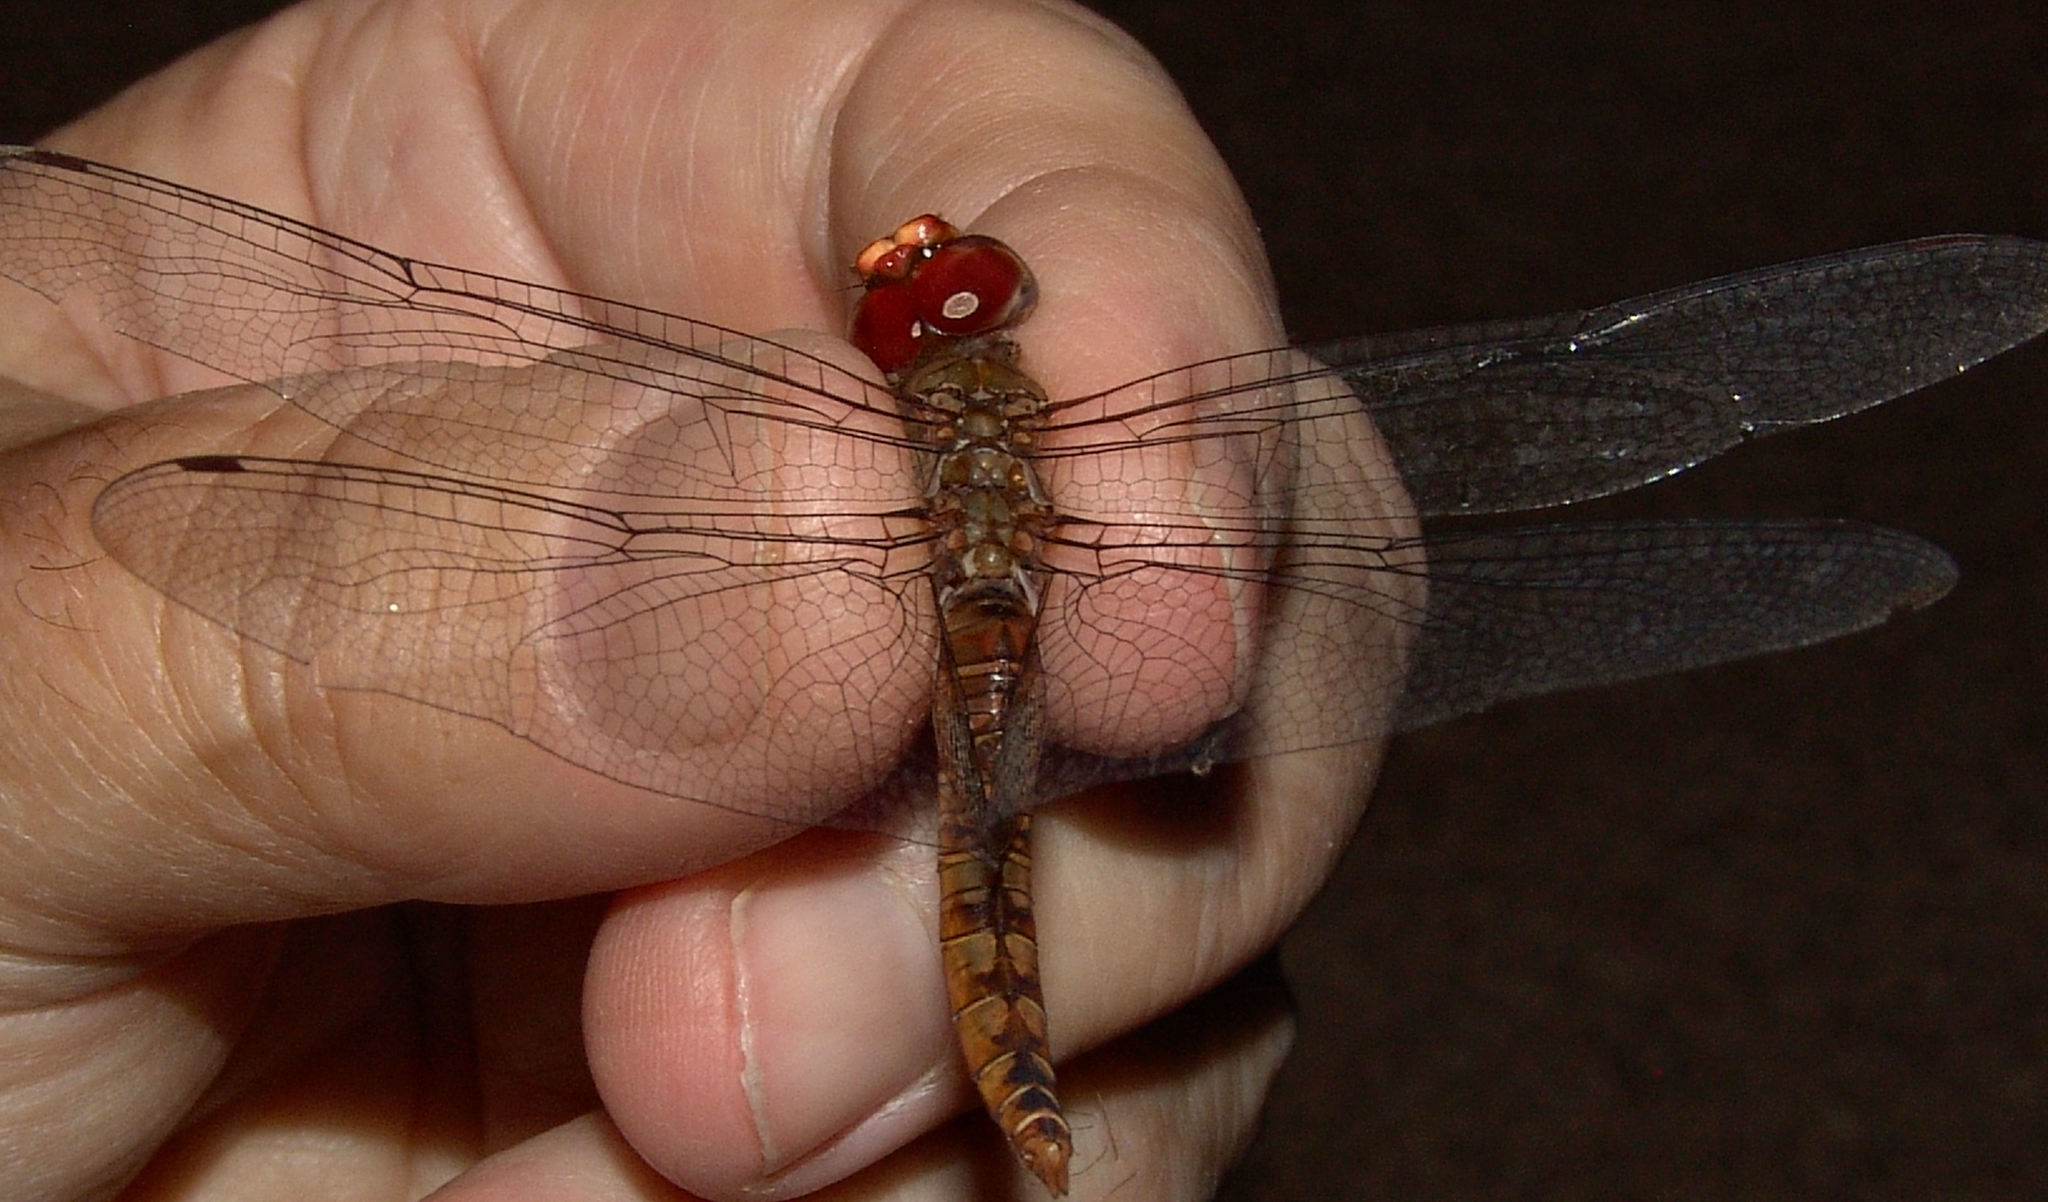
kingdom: Animalia
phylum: Arthropoda
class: Insecta
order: Odonata
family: Libellulidae
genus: Pantala
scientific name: Pantala hymenaea
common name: Spot-winged glider
